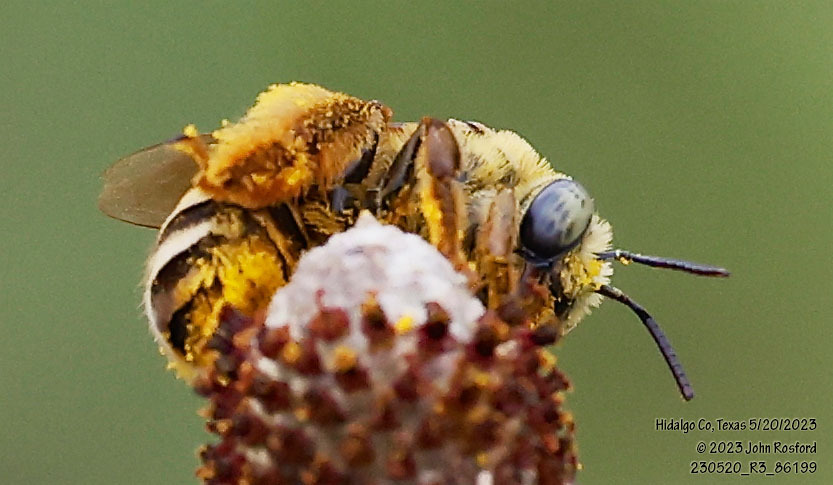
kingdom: Animalia
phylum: Arthropoda
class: Insecta
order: Hymenoptera
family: Apidae
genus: Svastra
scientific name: Svastra petulca
